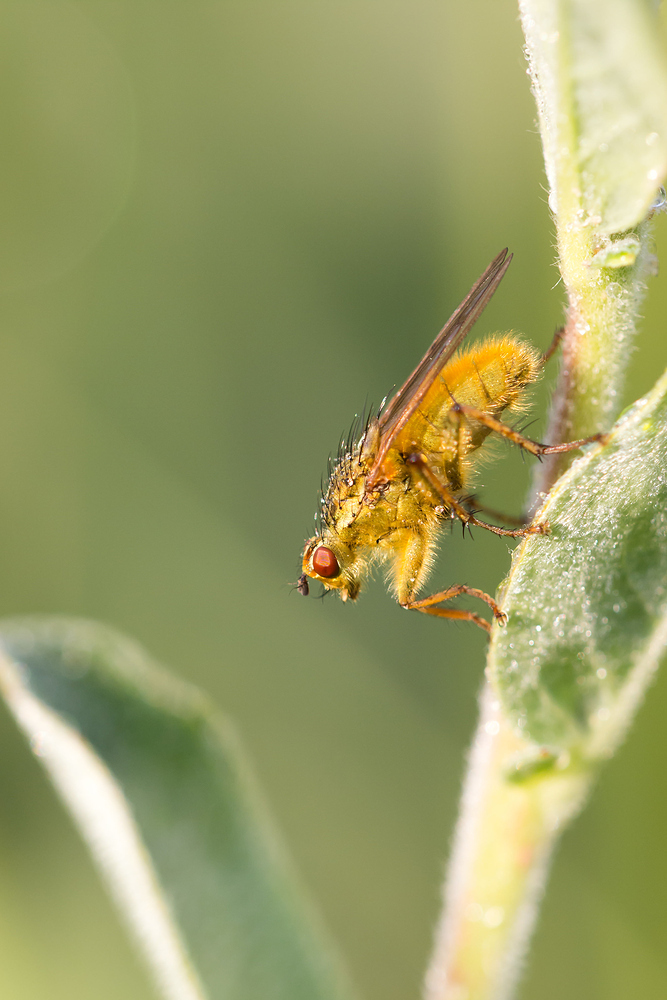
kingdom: Animalia
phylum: Arthropoda
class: Insecta
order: Diptera
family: Scathophagidae
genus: Scathophaga
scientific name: Scathophaga stercoraria
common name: Yellow dung fly
